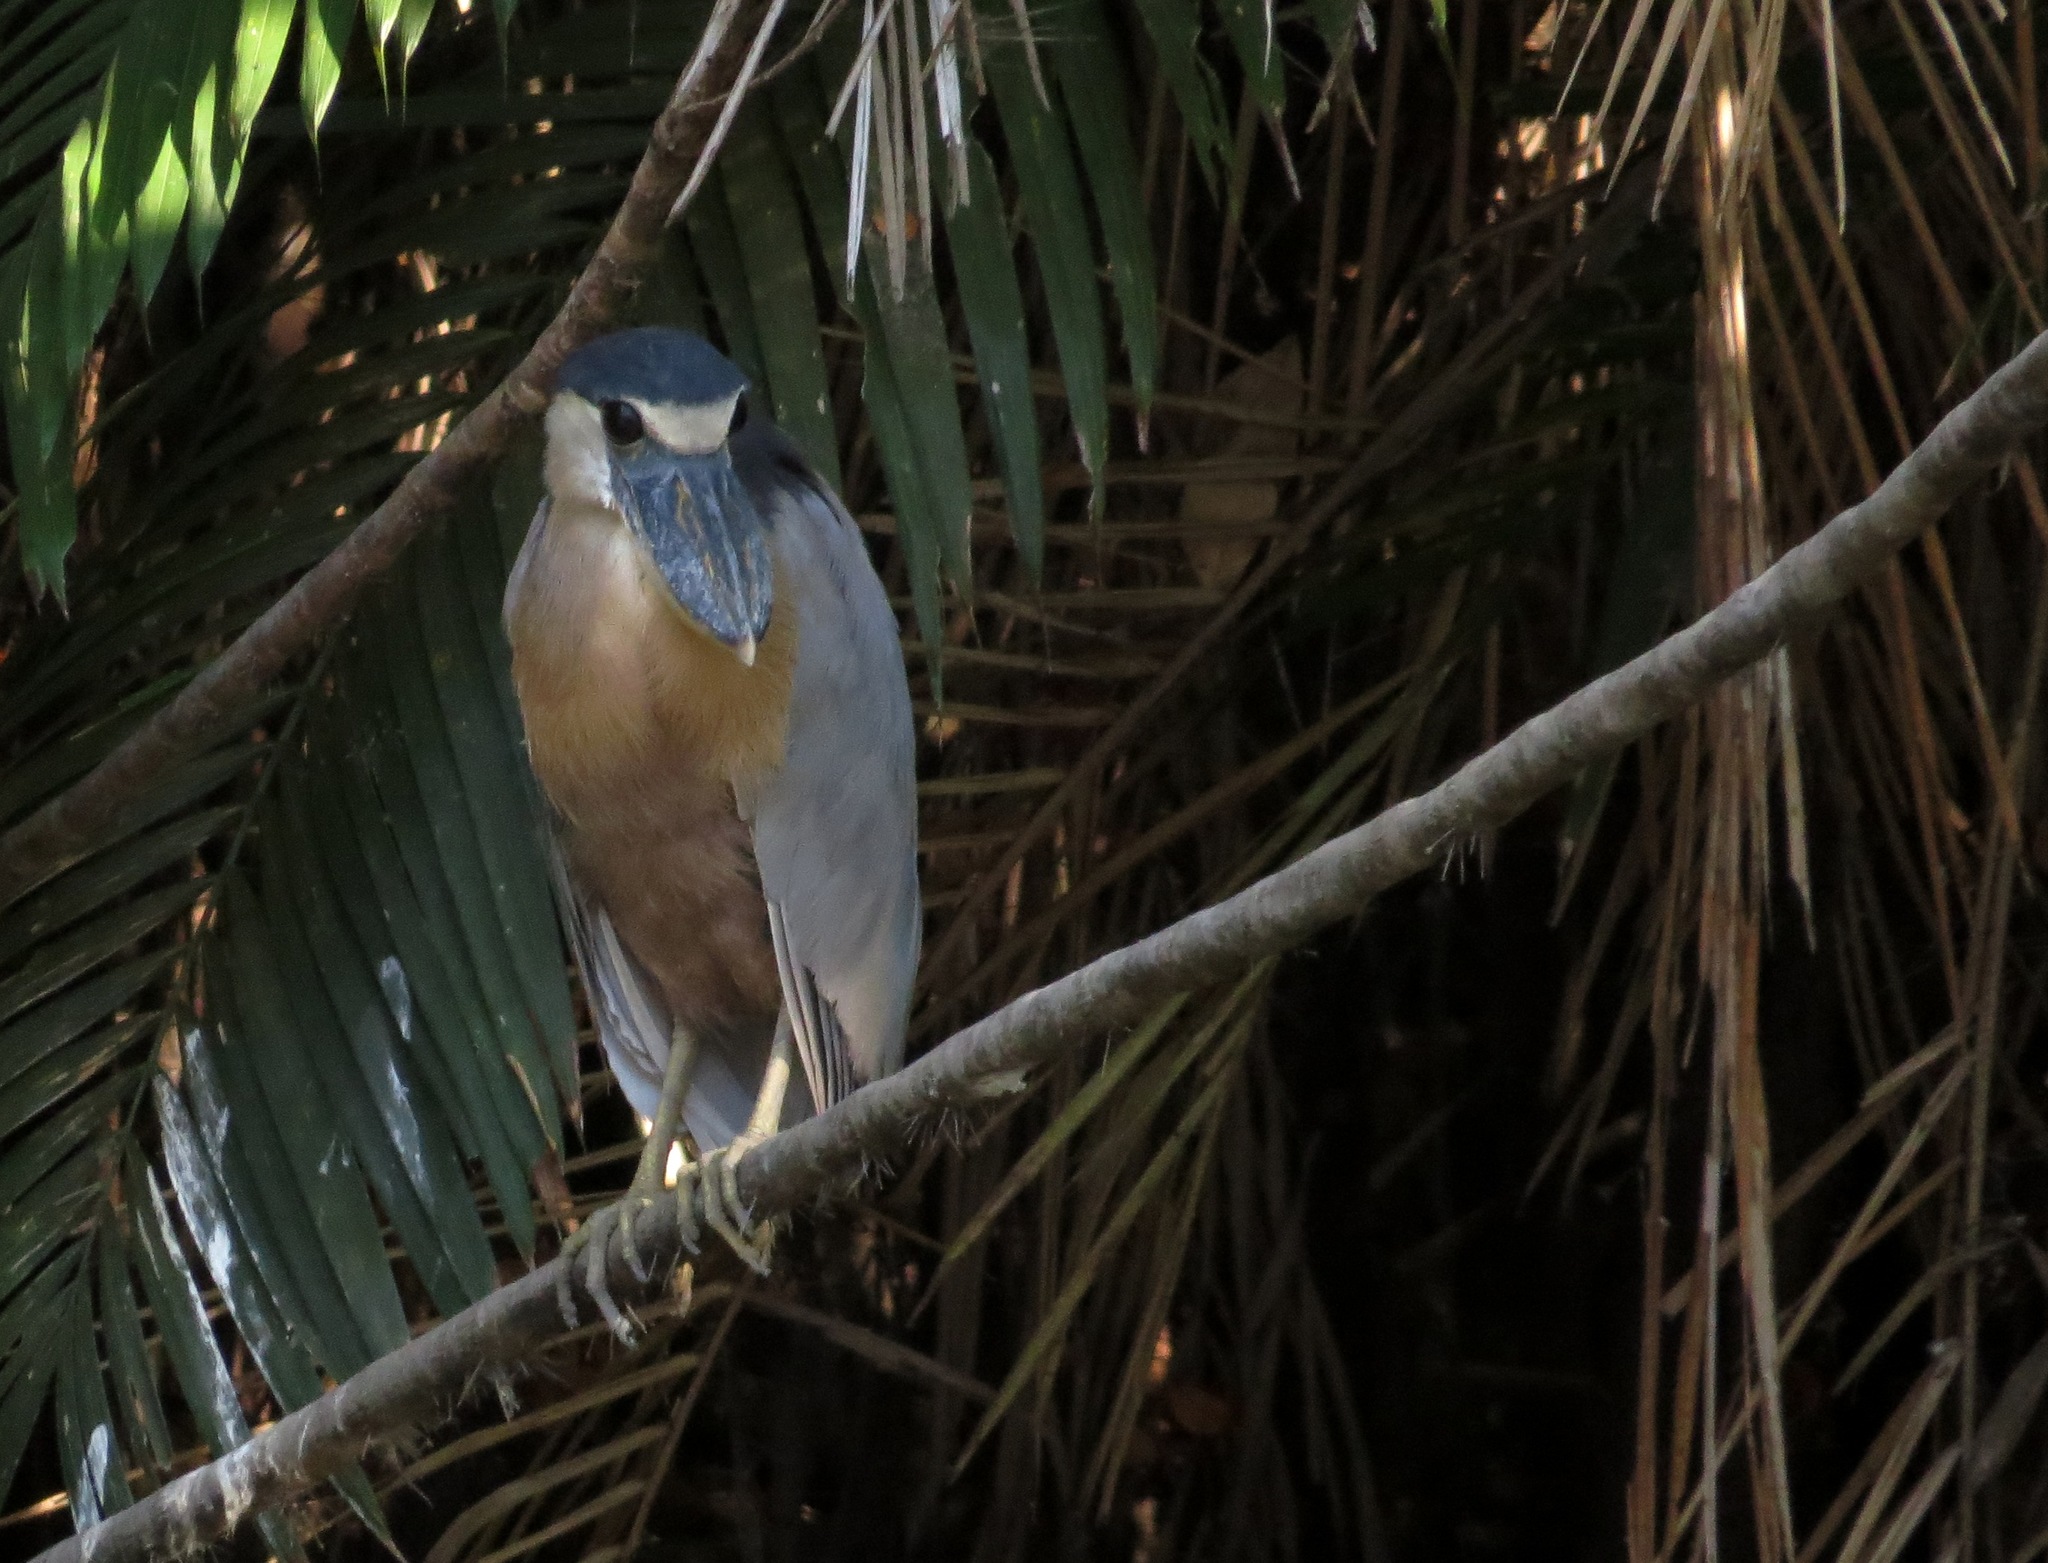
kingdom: Animalia
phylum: Chordata
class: Aves
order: Pelecaniformes
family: Ardeidae
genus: Cochlearius
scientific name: Cochlearius cochlearius
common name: Boat-billed heron
